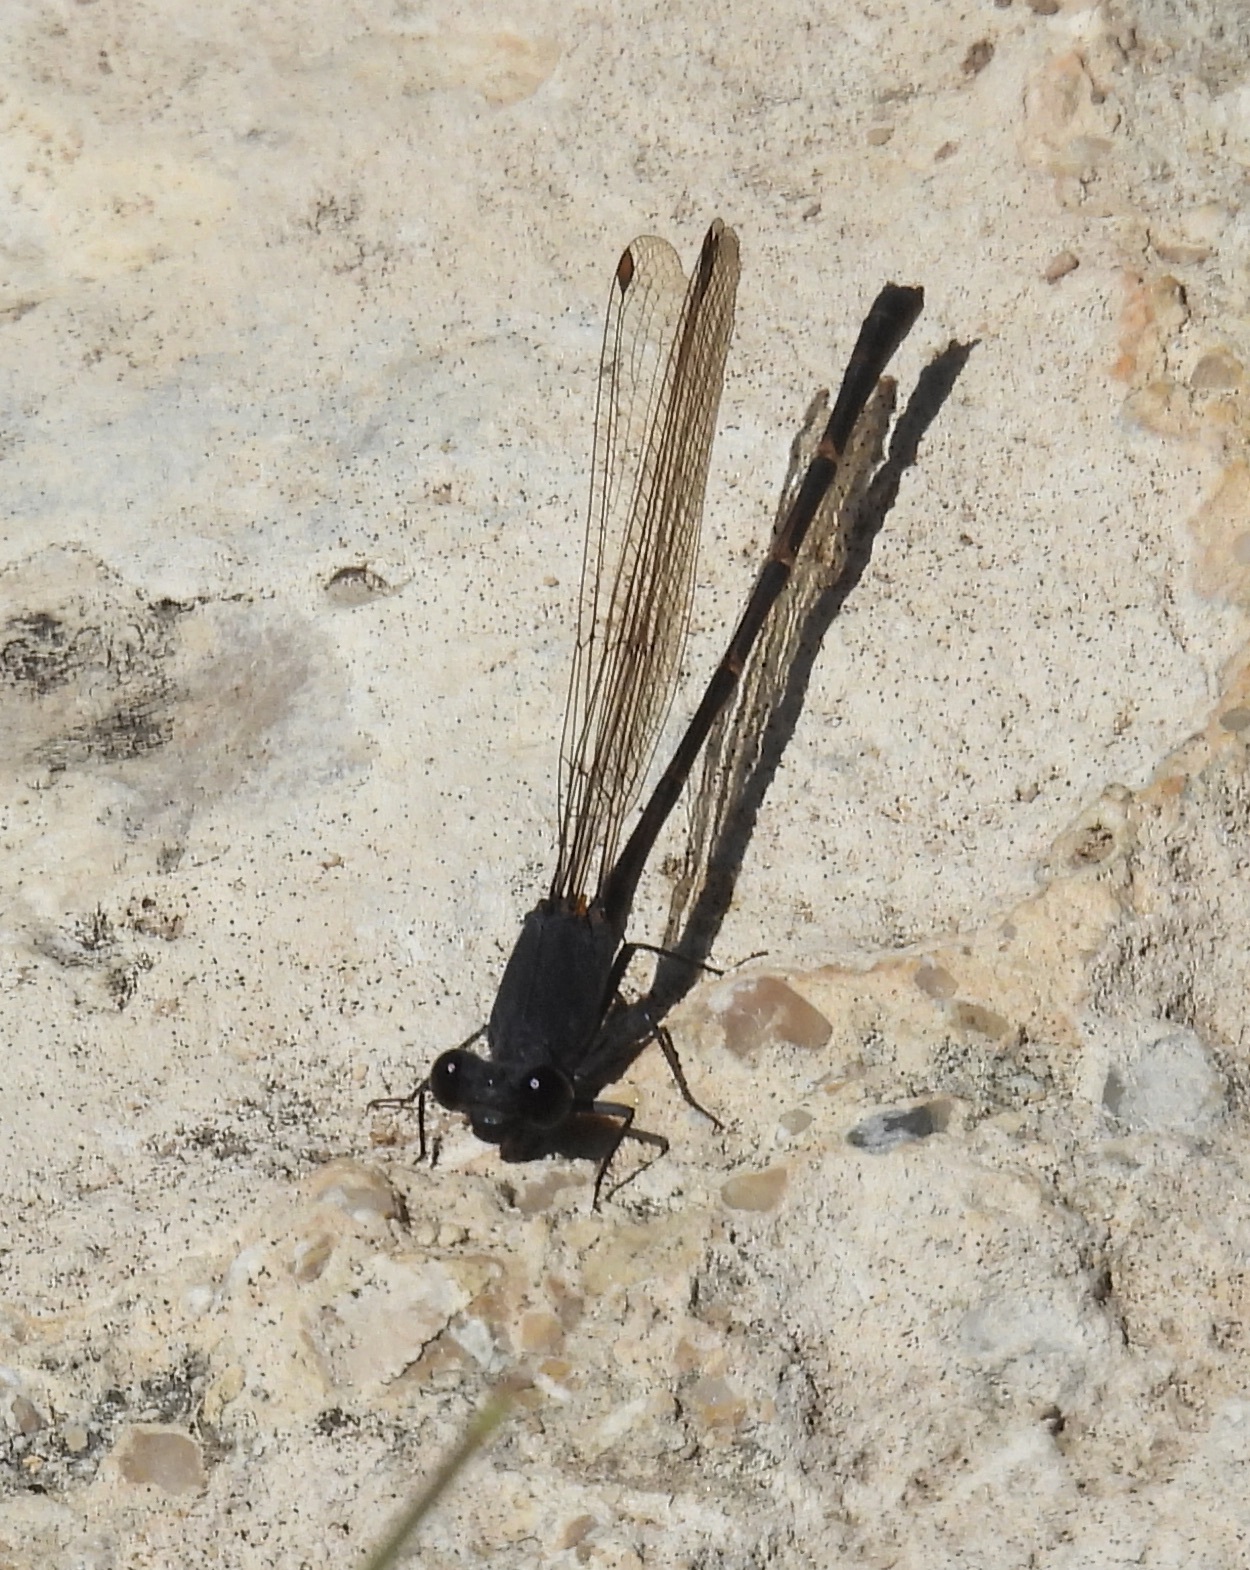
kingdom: Animalia
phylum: Arthropoda
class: Insecta
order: Odonata
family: Coenagrionidae
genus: Argia
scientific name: Argia lugens
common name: Sooty dancer
